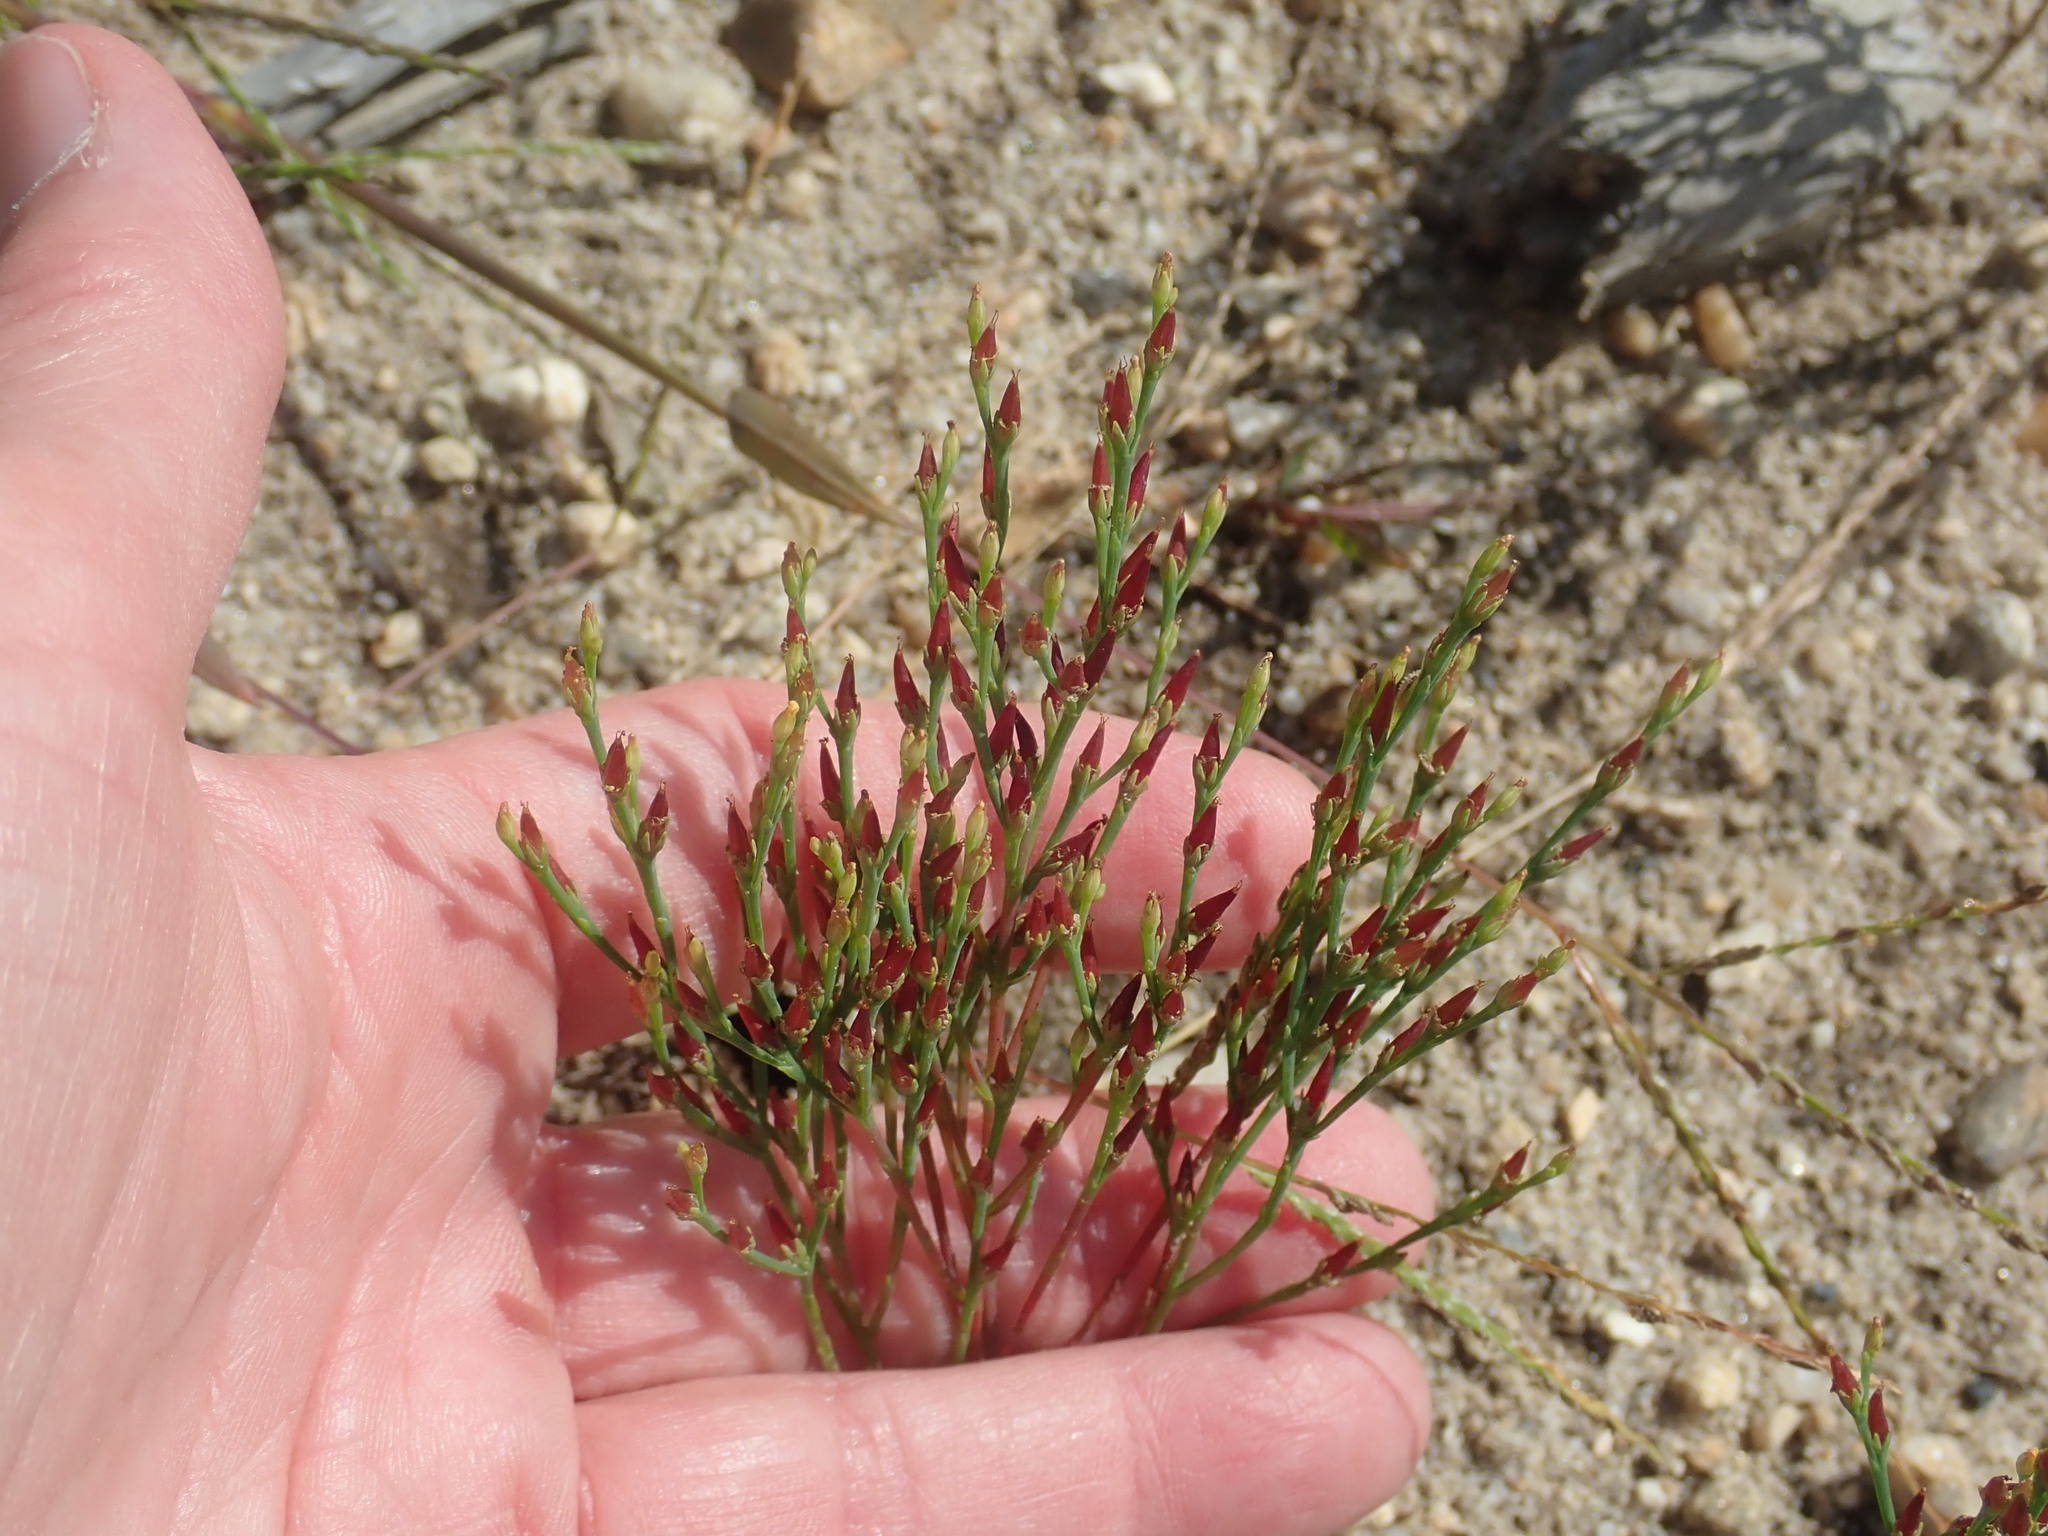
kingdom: Plantae
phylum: Tracheophyta
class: Magnoliopsida
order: Malpighiales
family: Hypericaceae
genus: Hypericum
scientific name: Hypericum gentianoides
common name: Gentian-leaved st. john's-wort
